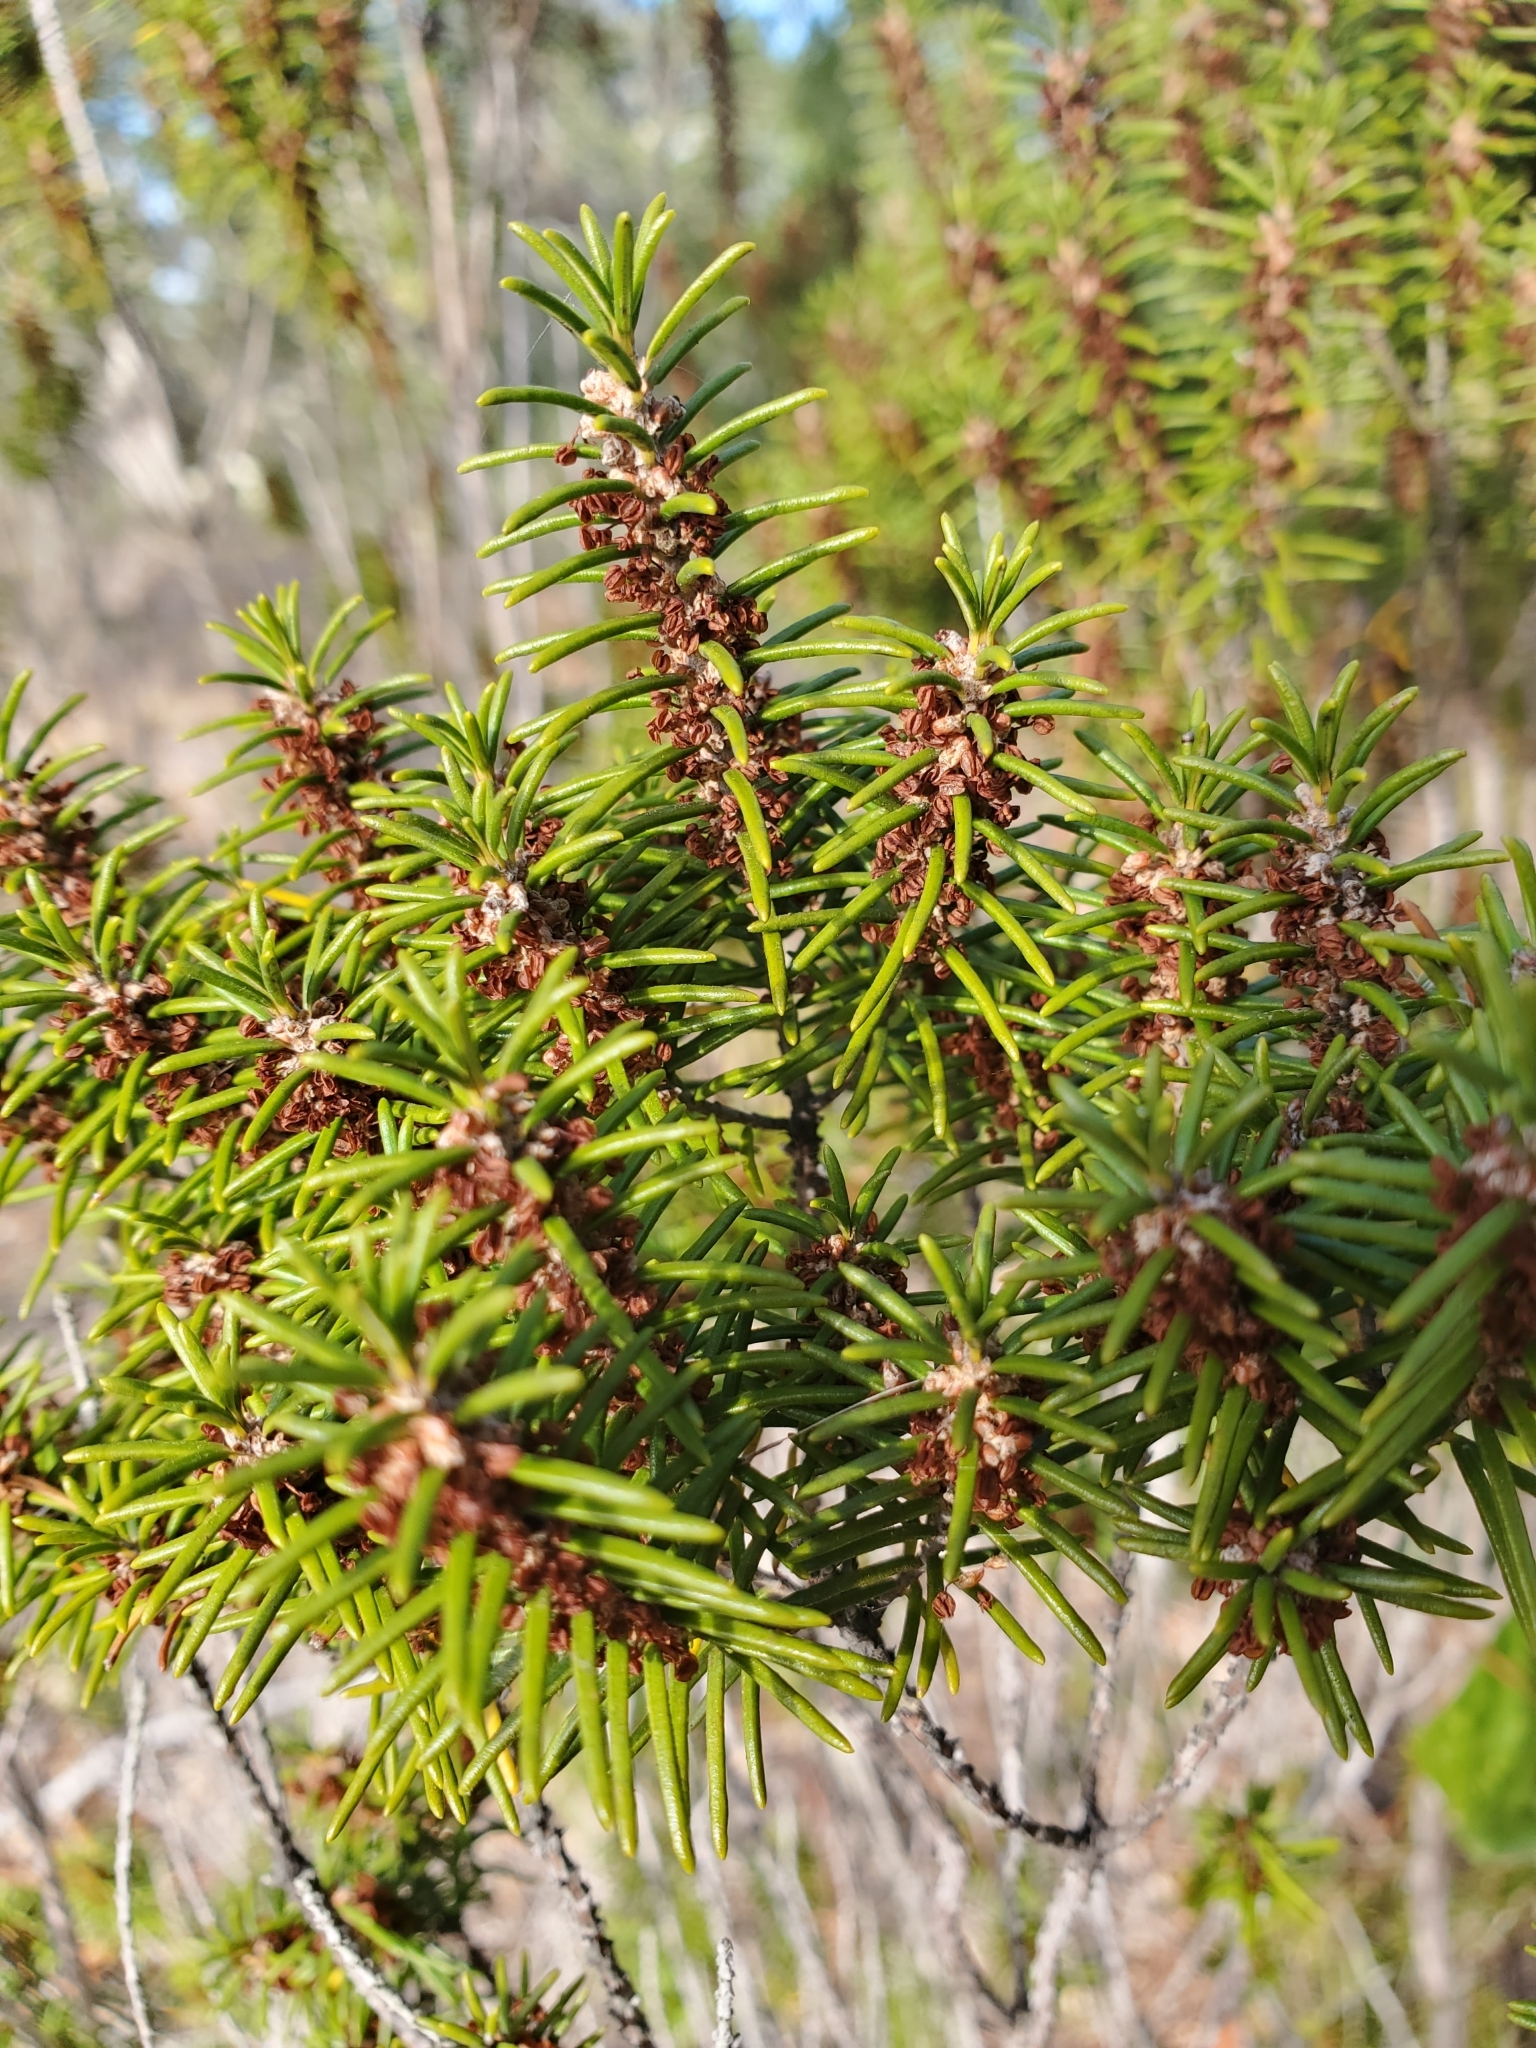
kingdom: Plantae
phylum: Tracheophyta
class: Magnoliopsida
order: Ericales
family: Ericaceae
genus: Ceratiola
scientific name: Ceratiola ericoides
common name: Sandhill-rosemary
